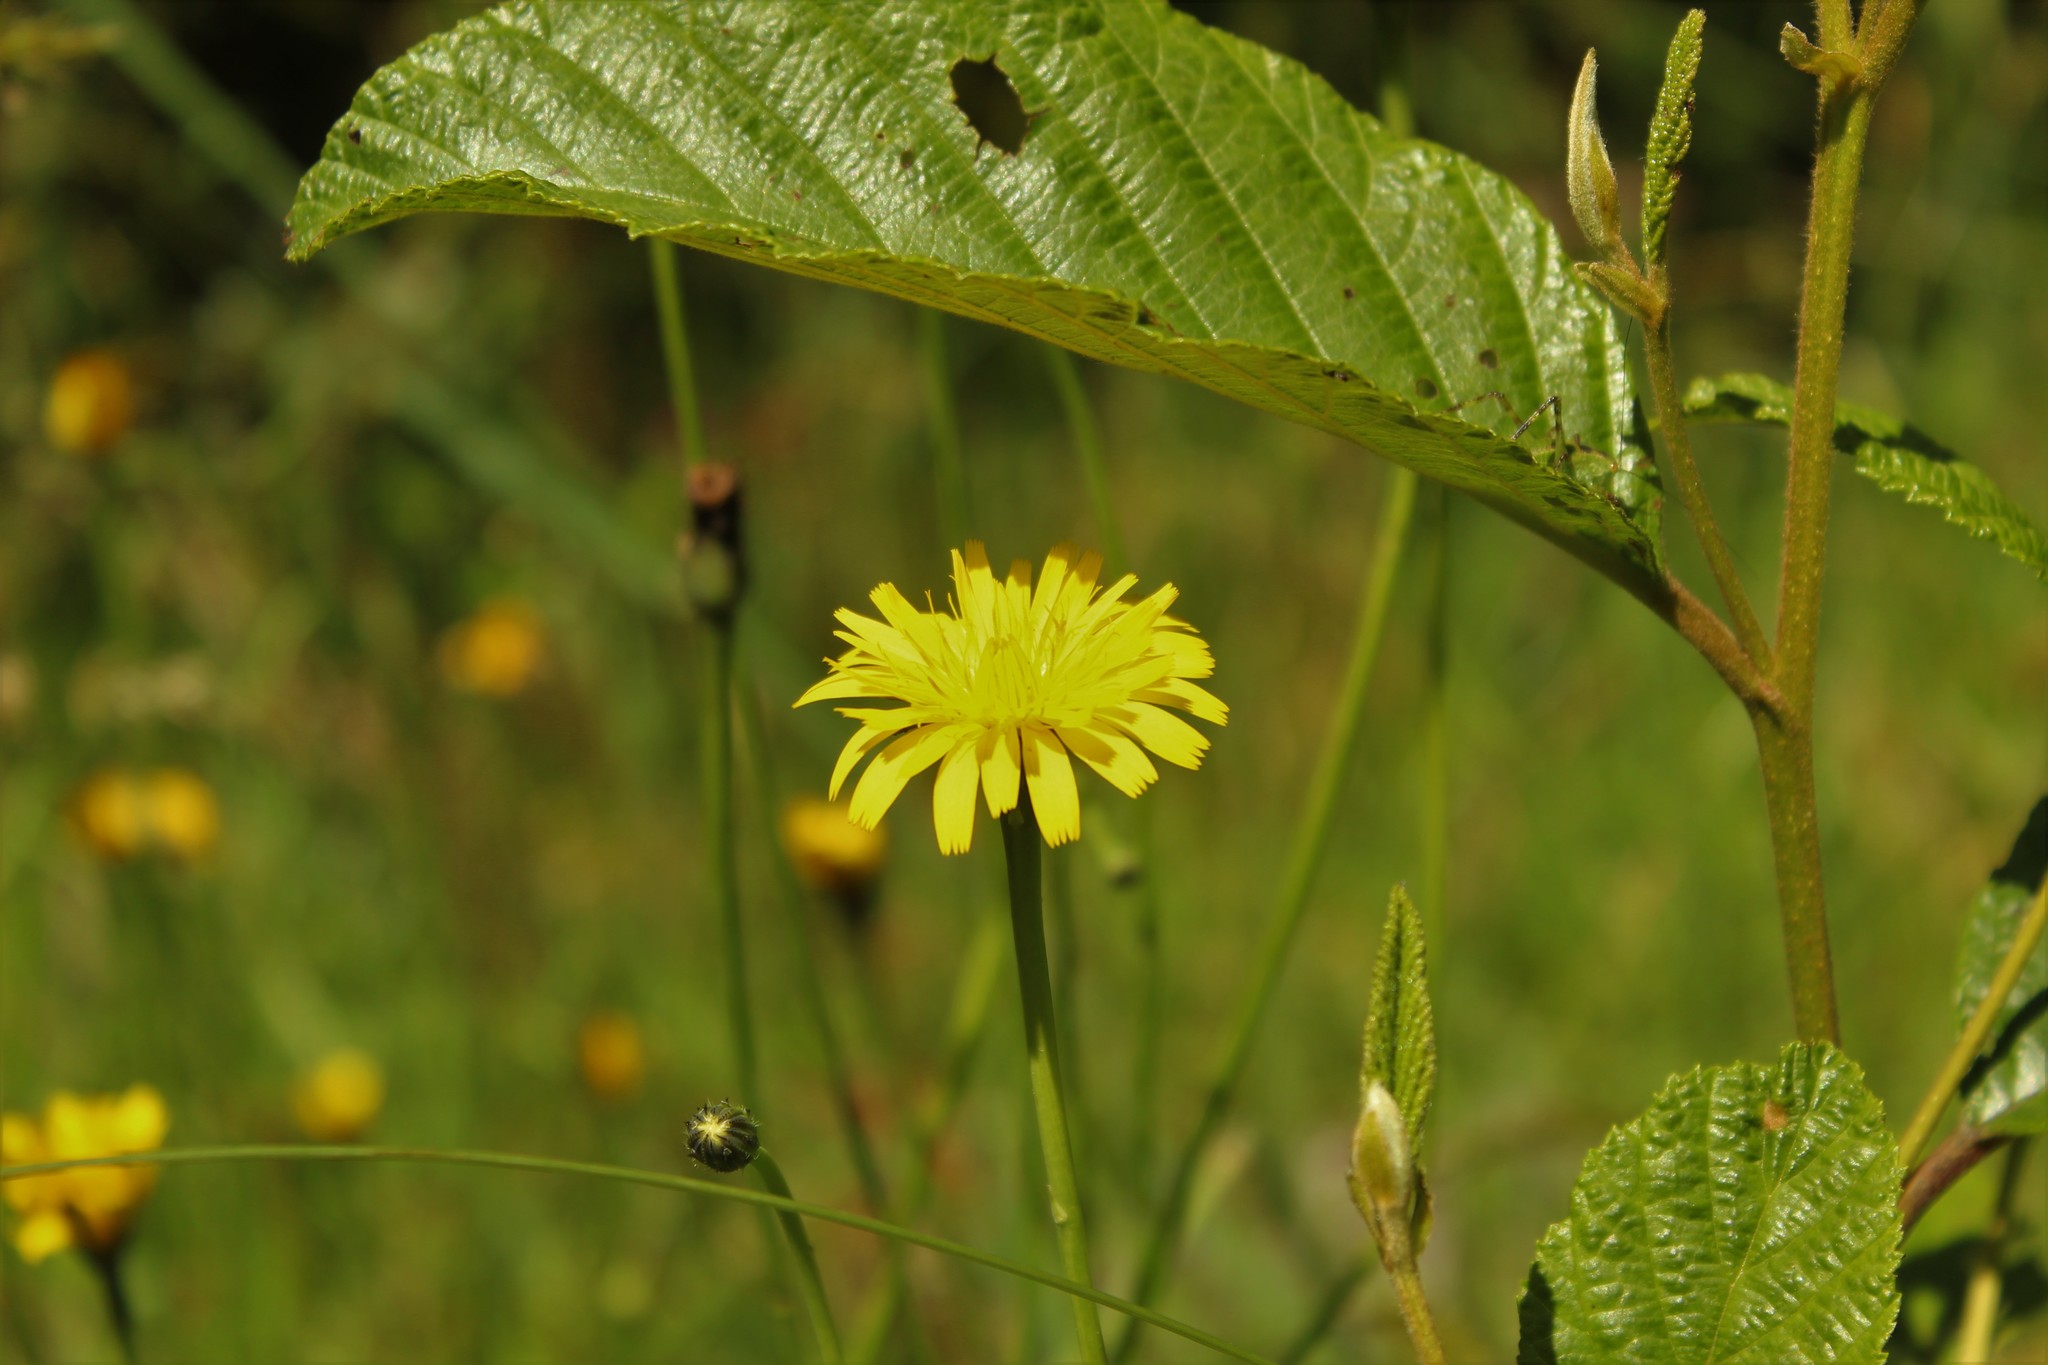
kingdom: Plantae
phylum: Tracheophyta
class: Magnoliopsida
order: Asterales
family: Asteraceae
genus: Hypochaeris
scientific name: Hypochaeris radicata
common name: Flatweed
